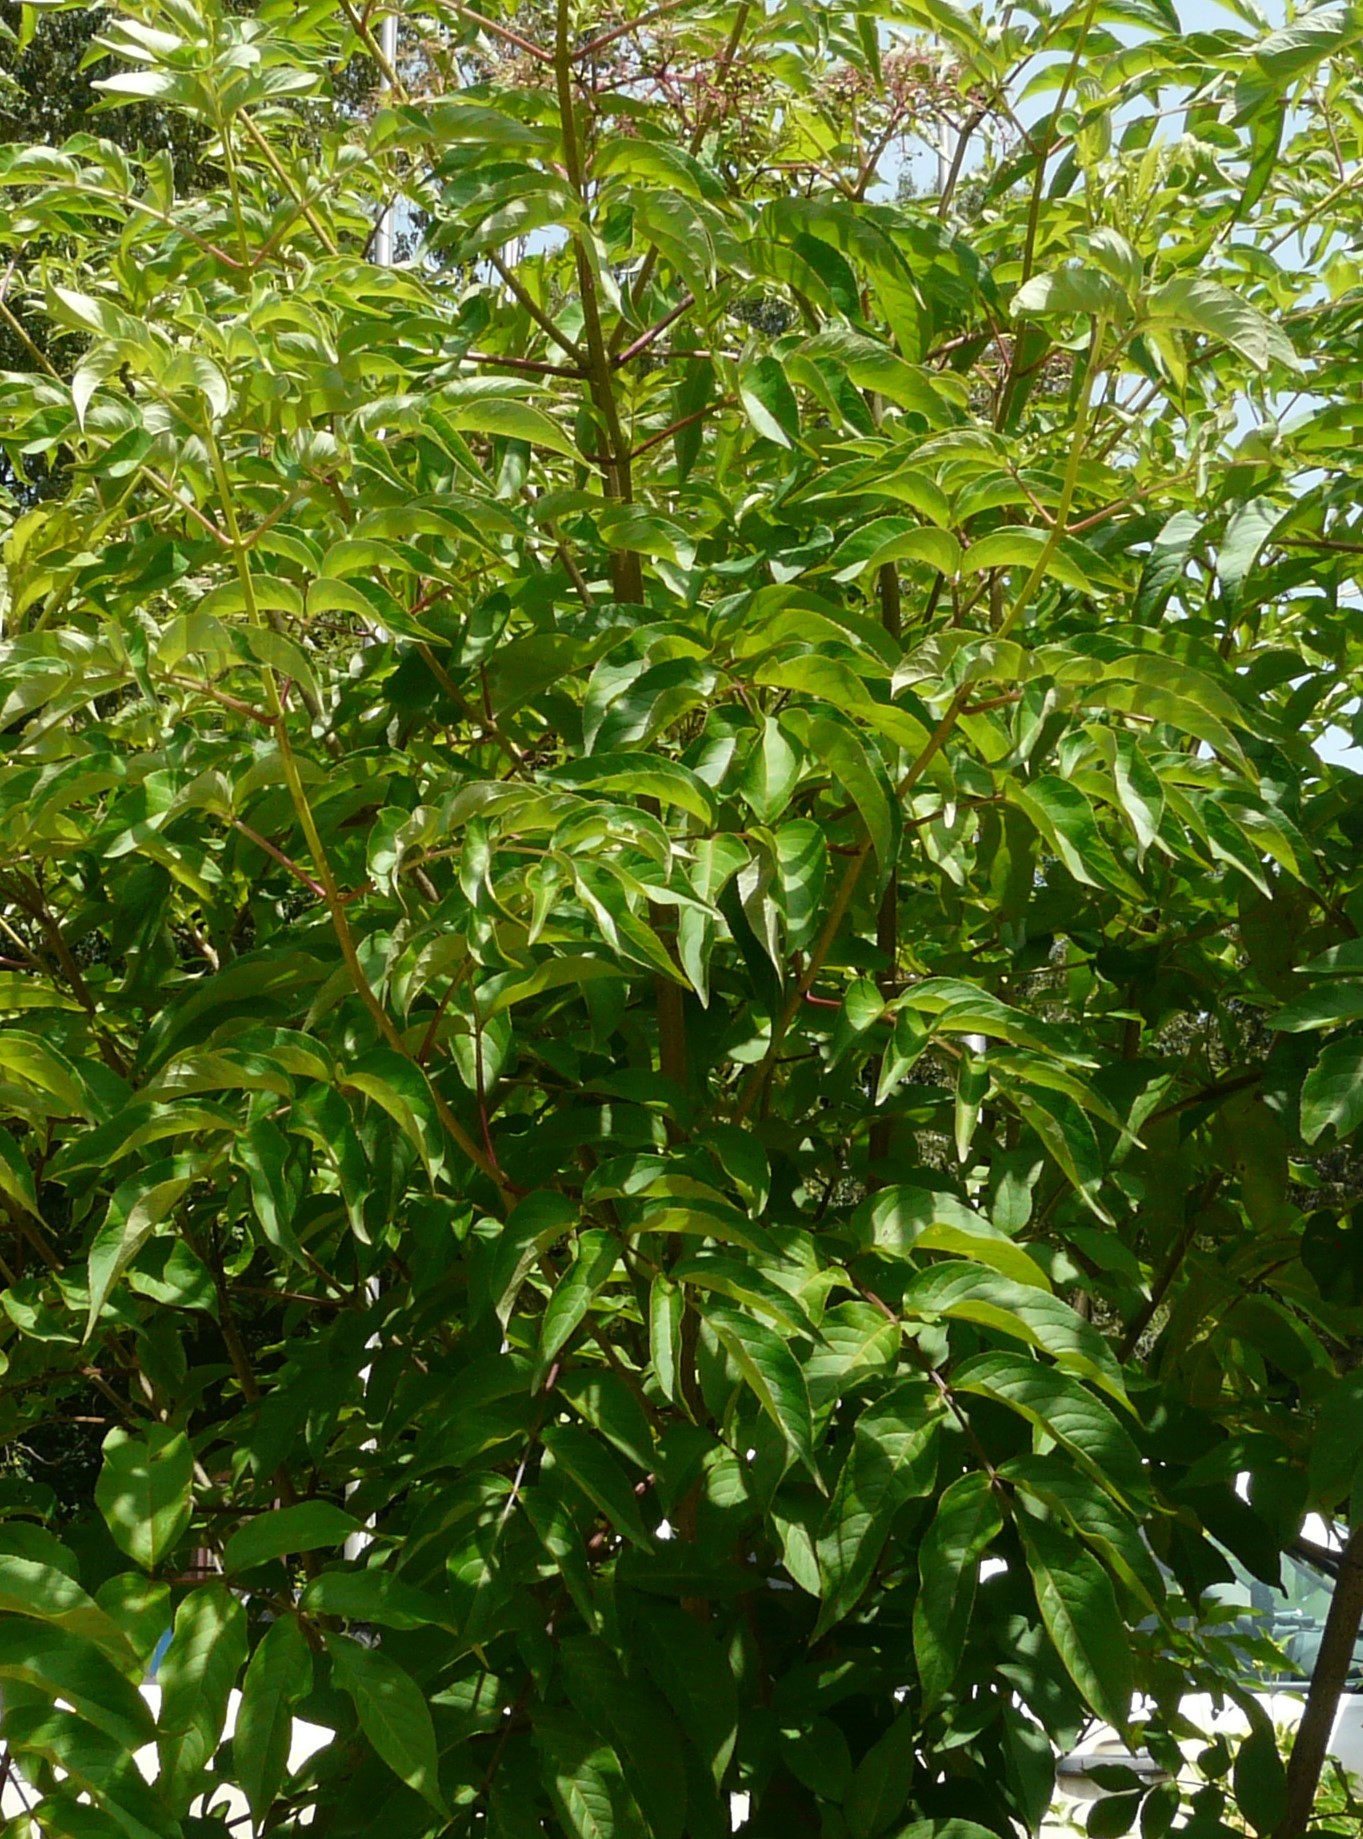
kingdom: Plantae
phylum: Tracheophyta
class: Magnoliopsida
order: Dipsacales
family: Viburnaceae
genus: Sambucus
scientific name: Sambucus canadensis
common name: American elder
